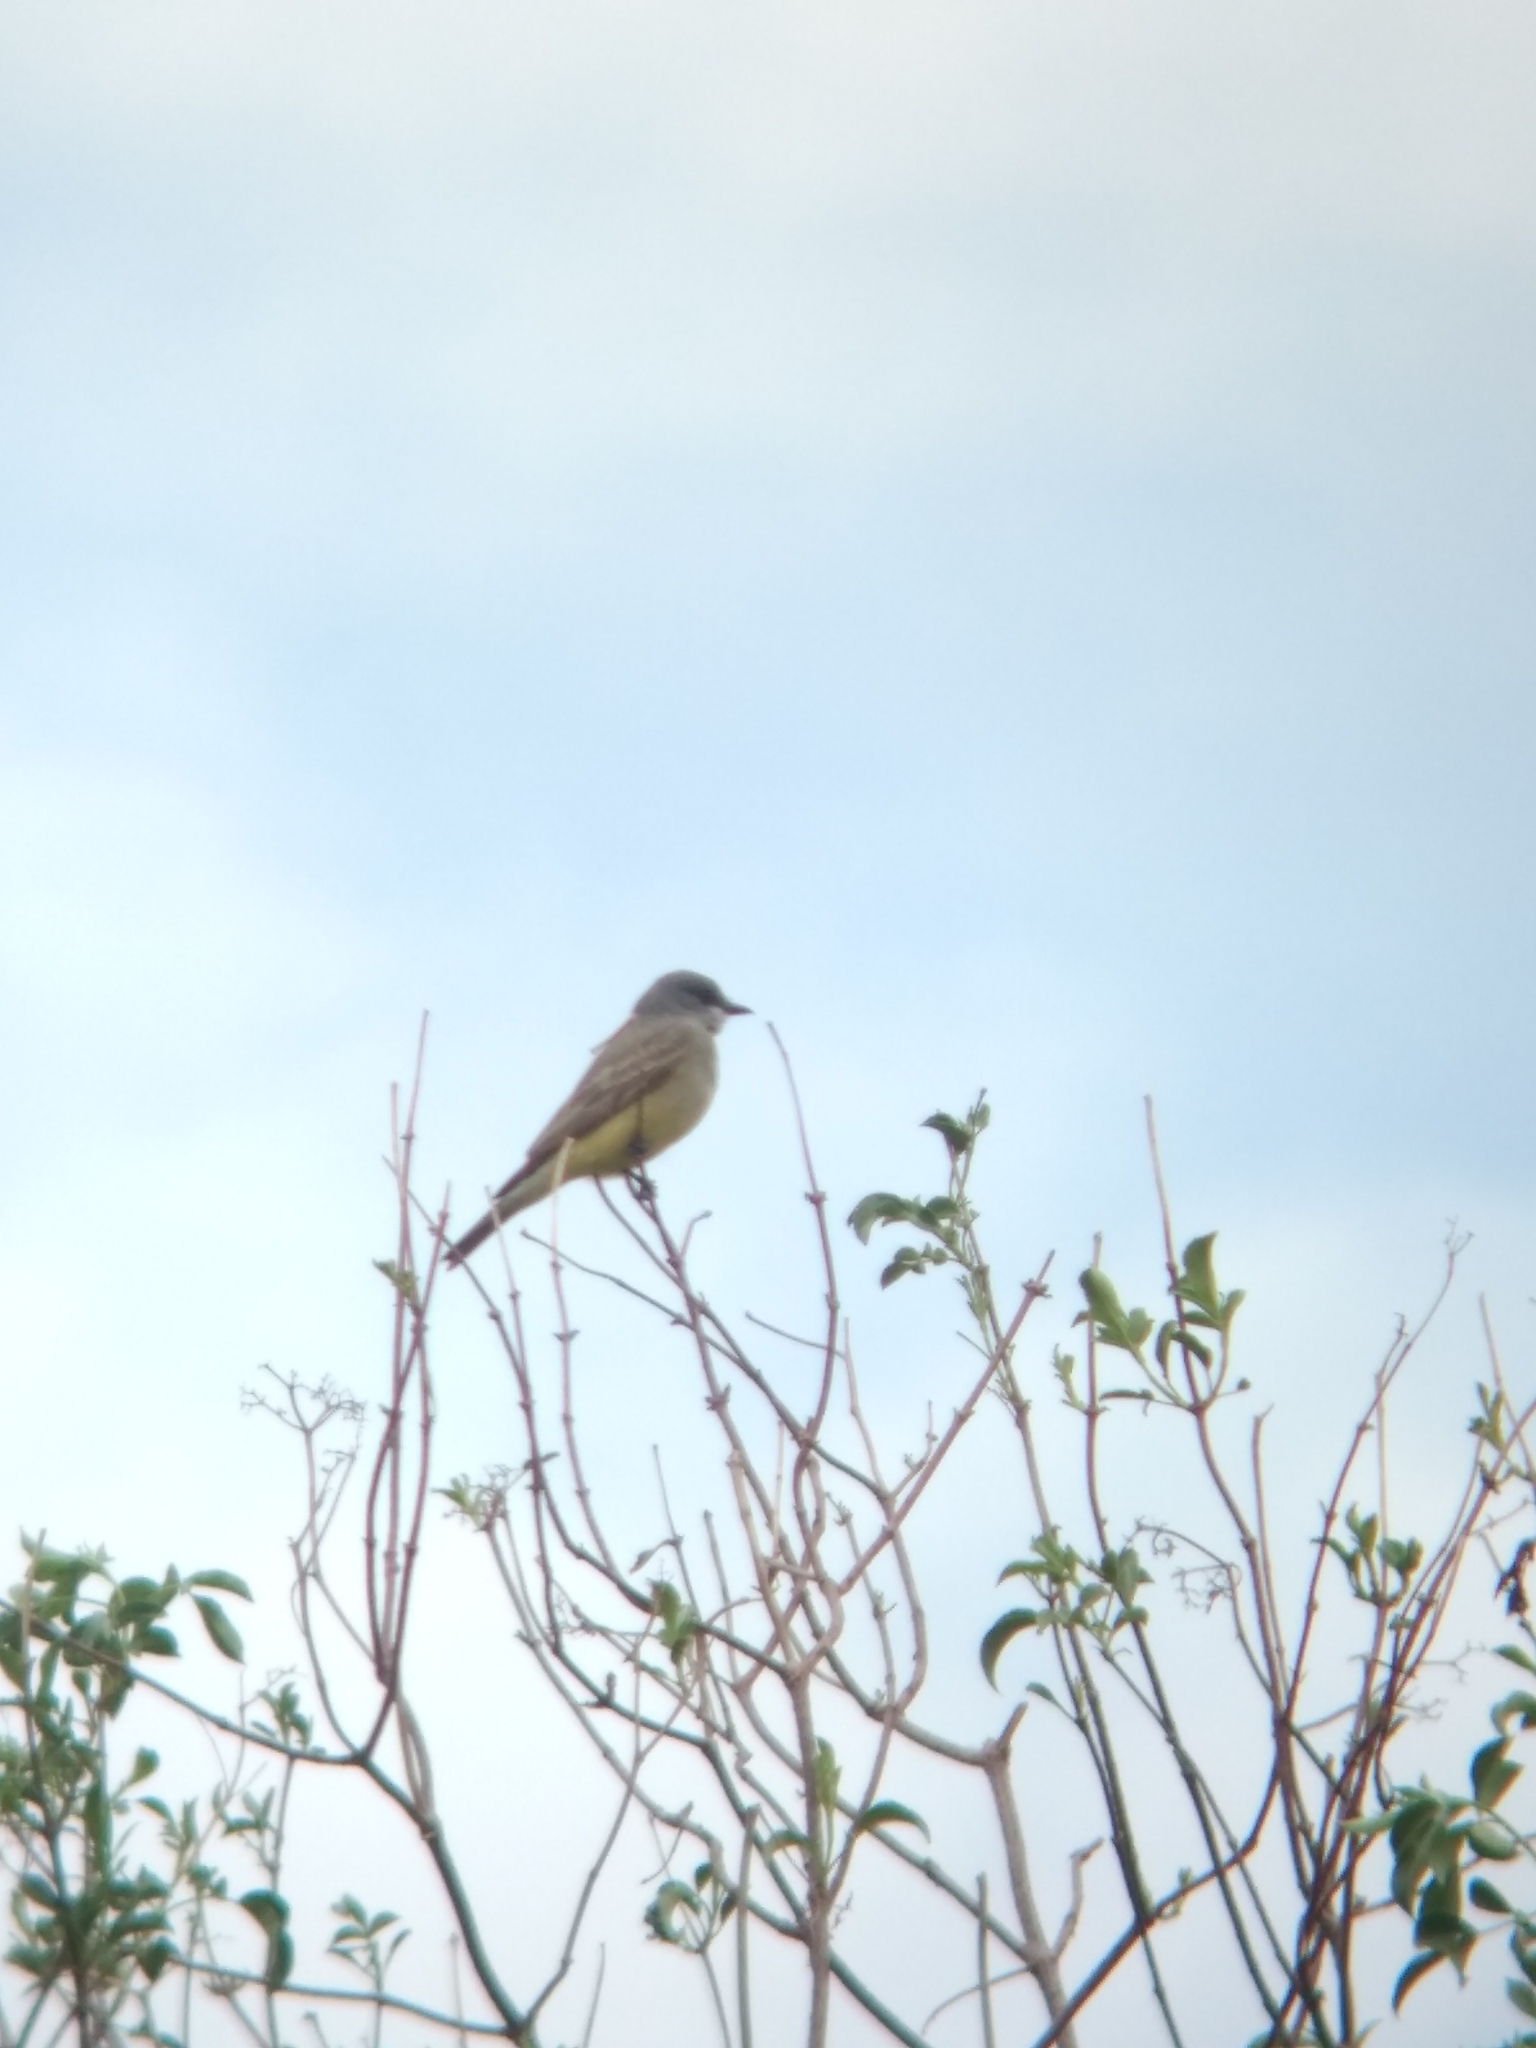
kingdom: Animalia
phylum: Chordata
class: Aves
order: Passeriformes
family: Tyrannidae
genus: Tyrannus
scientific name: Tyrannus vociferans
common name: Cassin's kingbird
